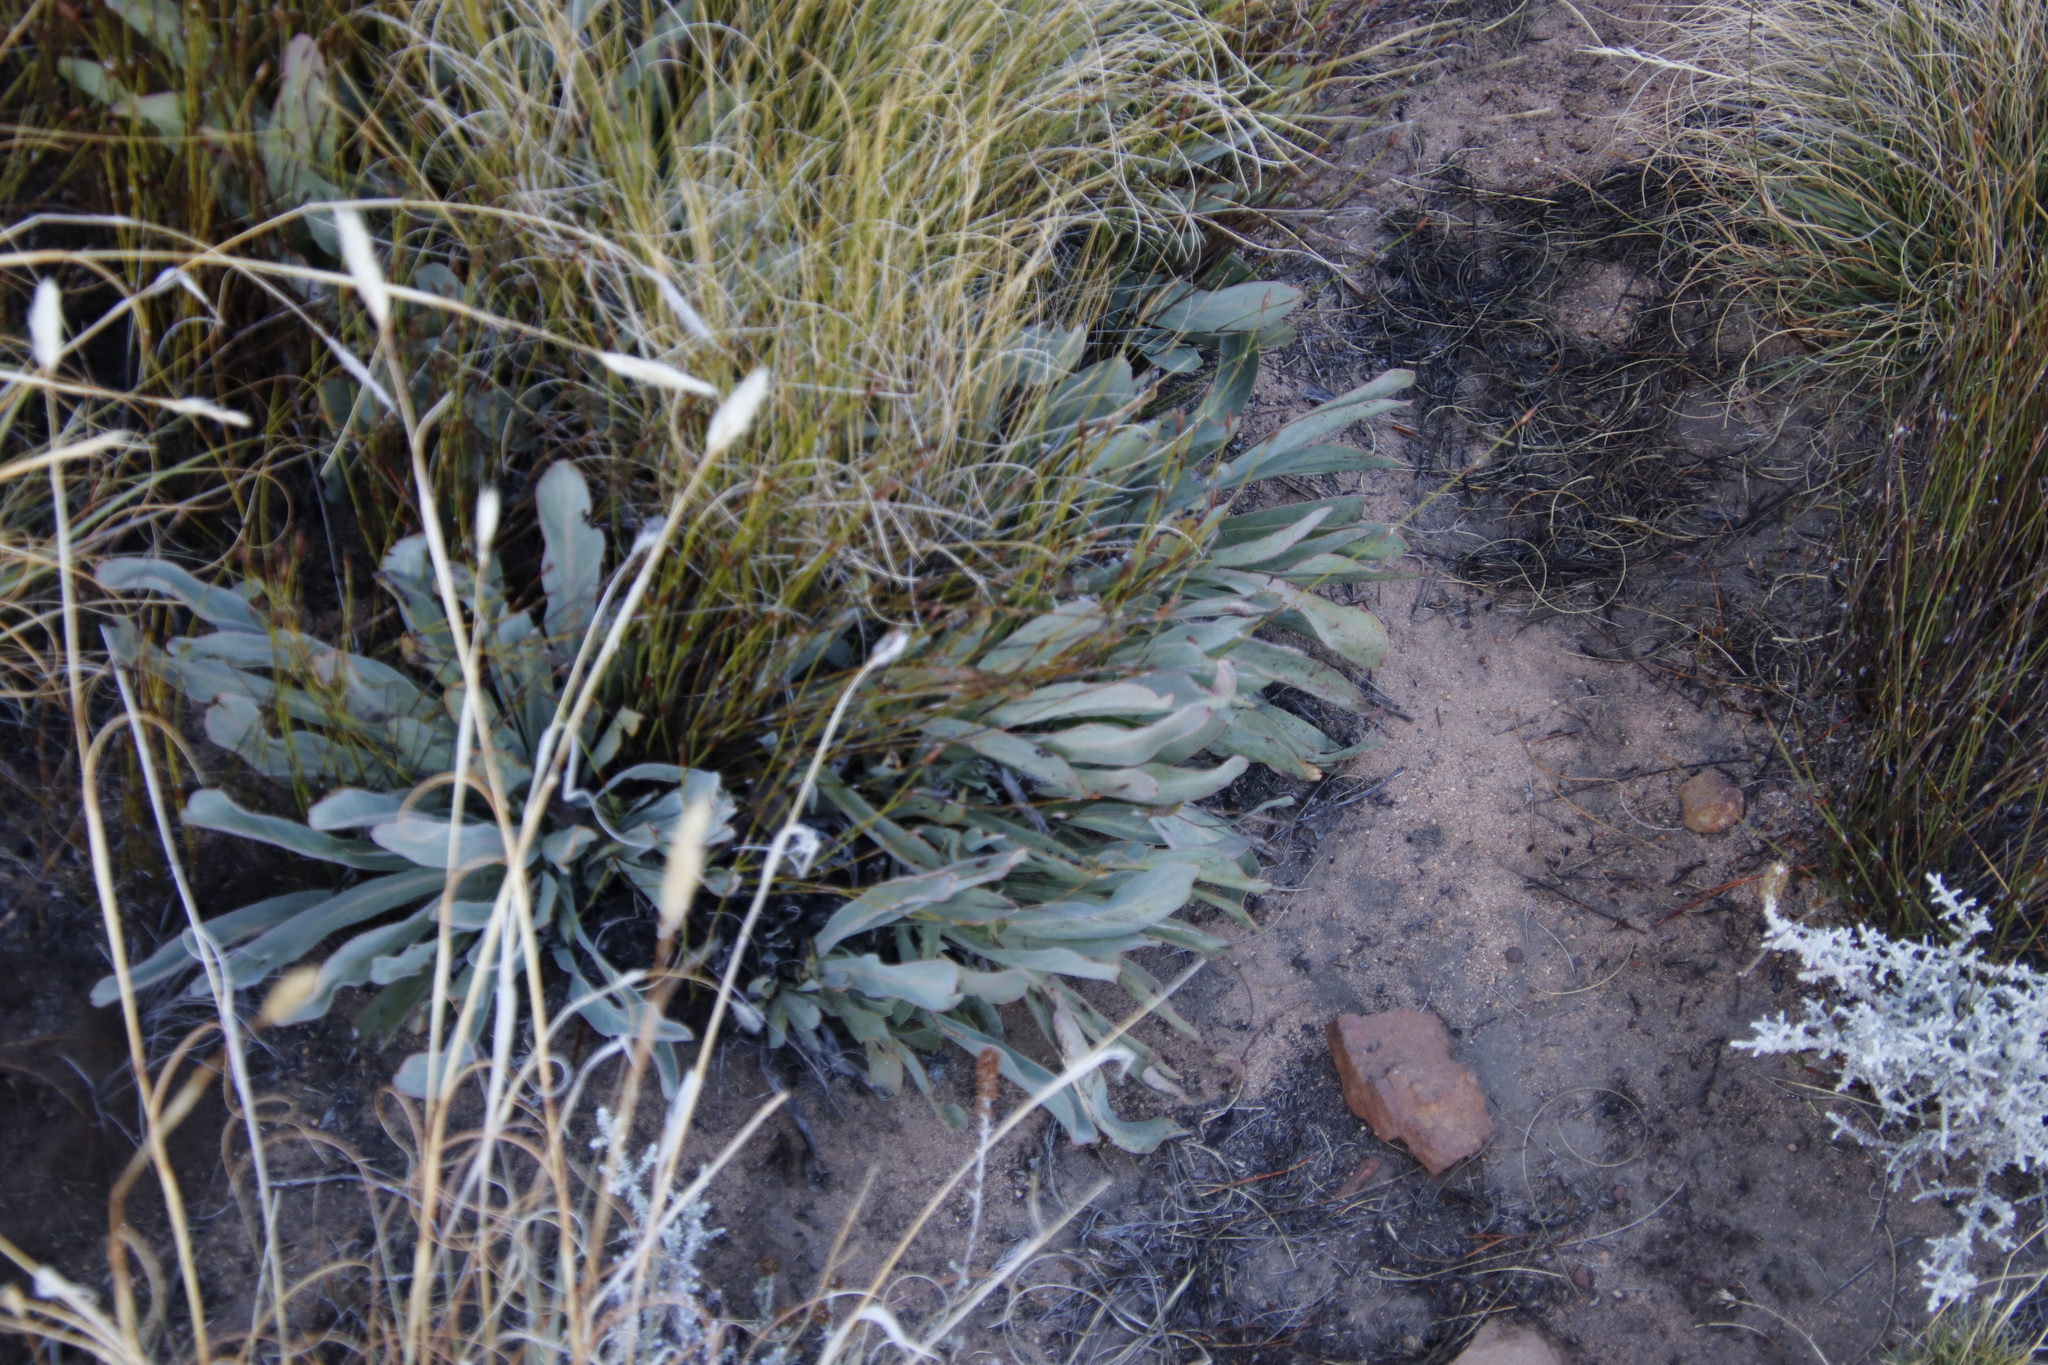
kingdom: Plantae
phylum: Tracheophyta
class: Magnoliopsida
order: Proteales
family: Proteaceae
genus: Protea
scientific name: Protea laevis
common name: Smooth-leaf sugarbush
